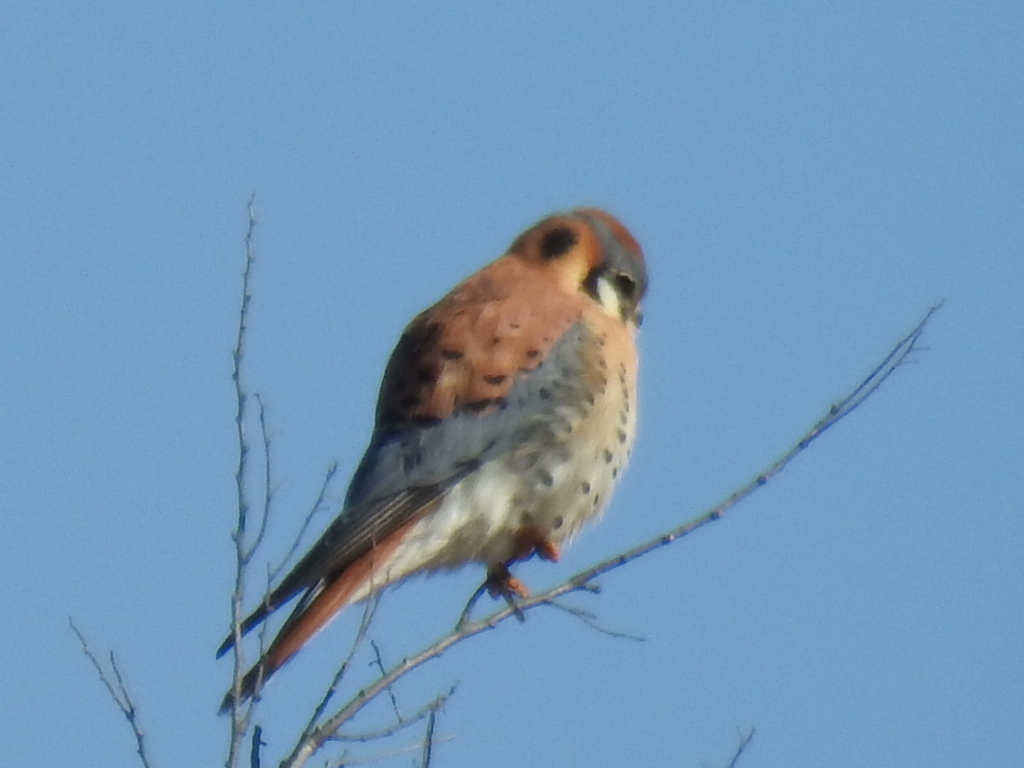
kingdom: Animalia
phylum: Chordata
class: Aves
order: Falconiformes
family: Falconidae
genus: Falco
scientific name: Falco sparverius
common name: American kestrel
